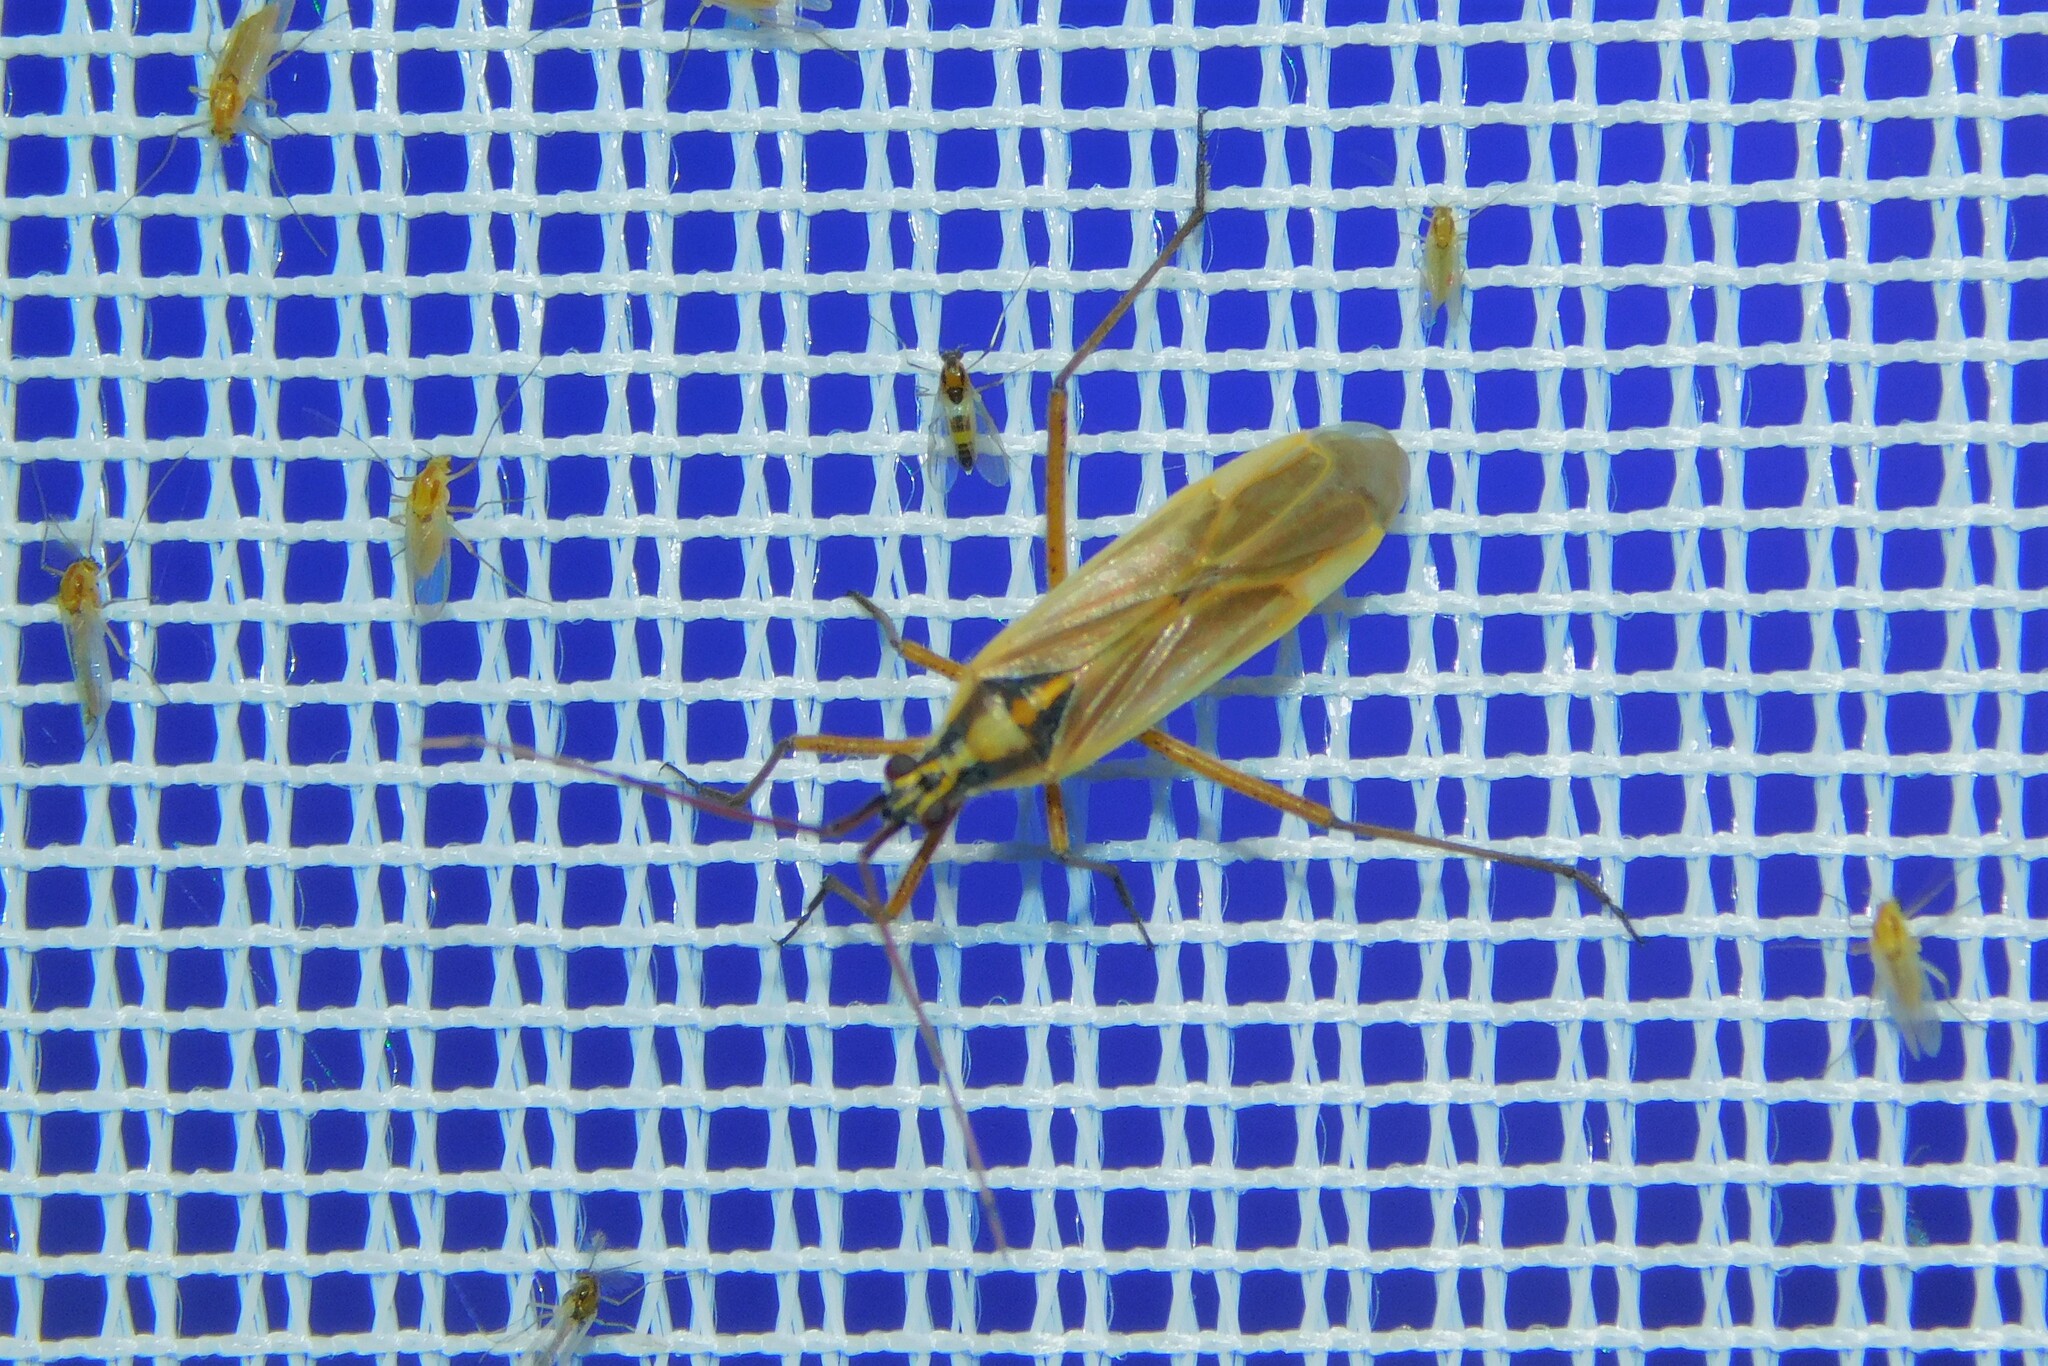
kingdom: Animalia
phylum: Arthropoda
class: Insecta
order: Hemiptera
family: Miridae
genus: Leptopterna
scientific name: Leptopterna
